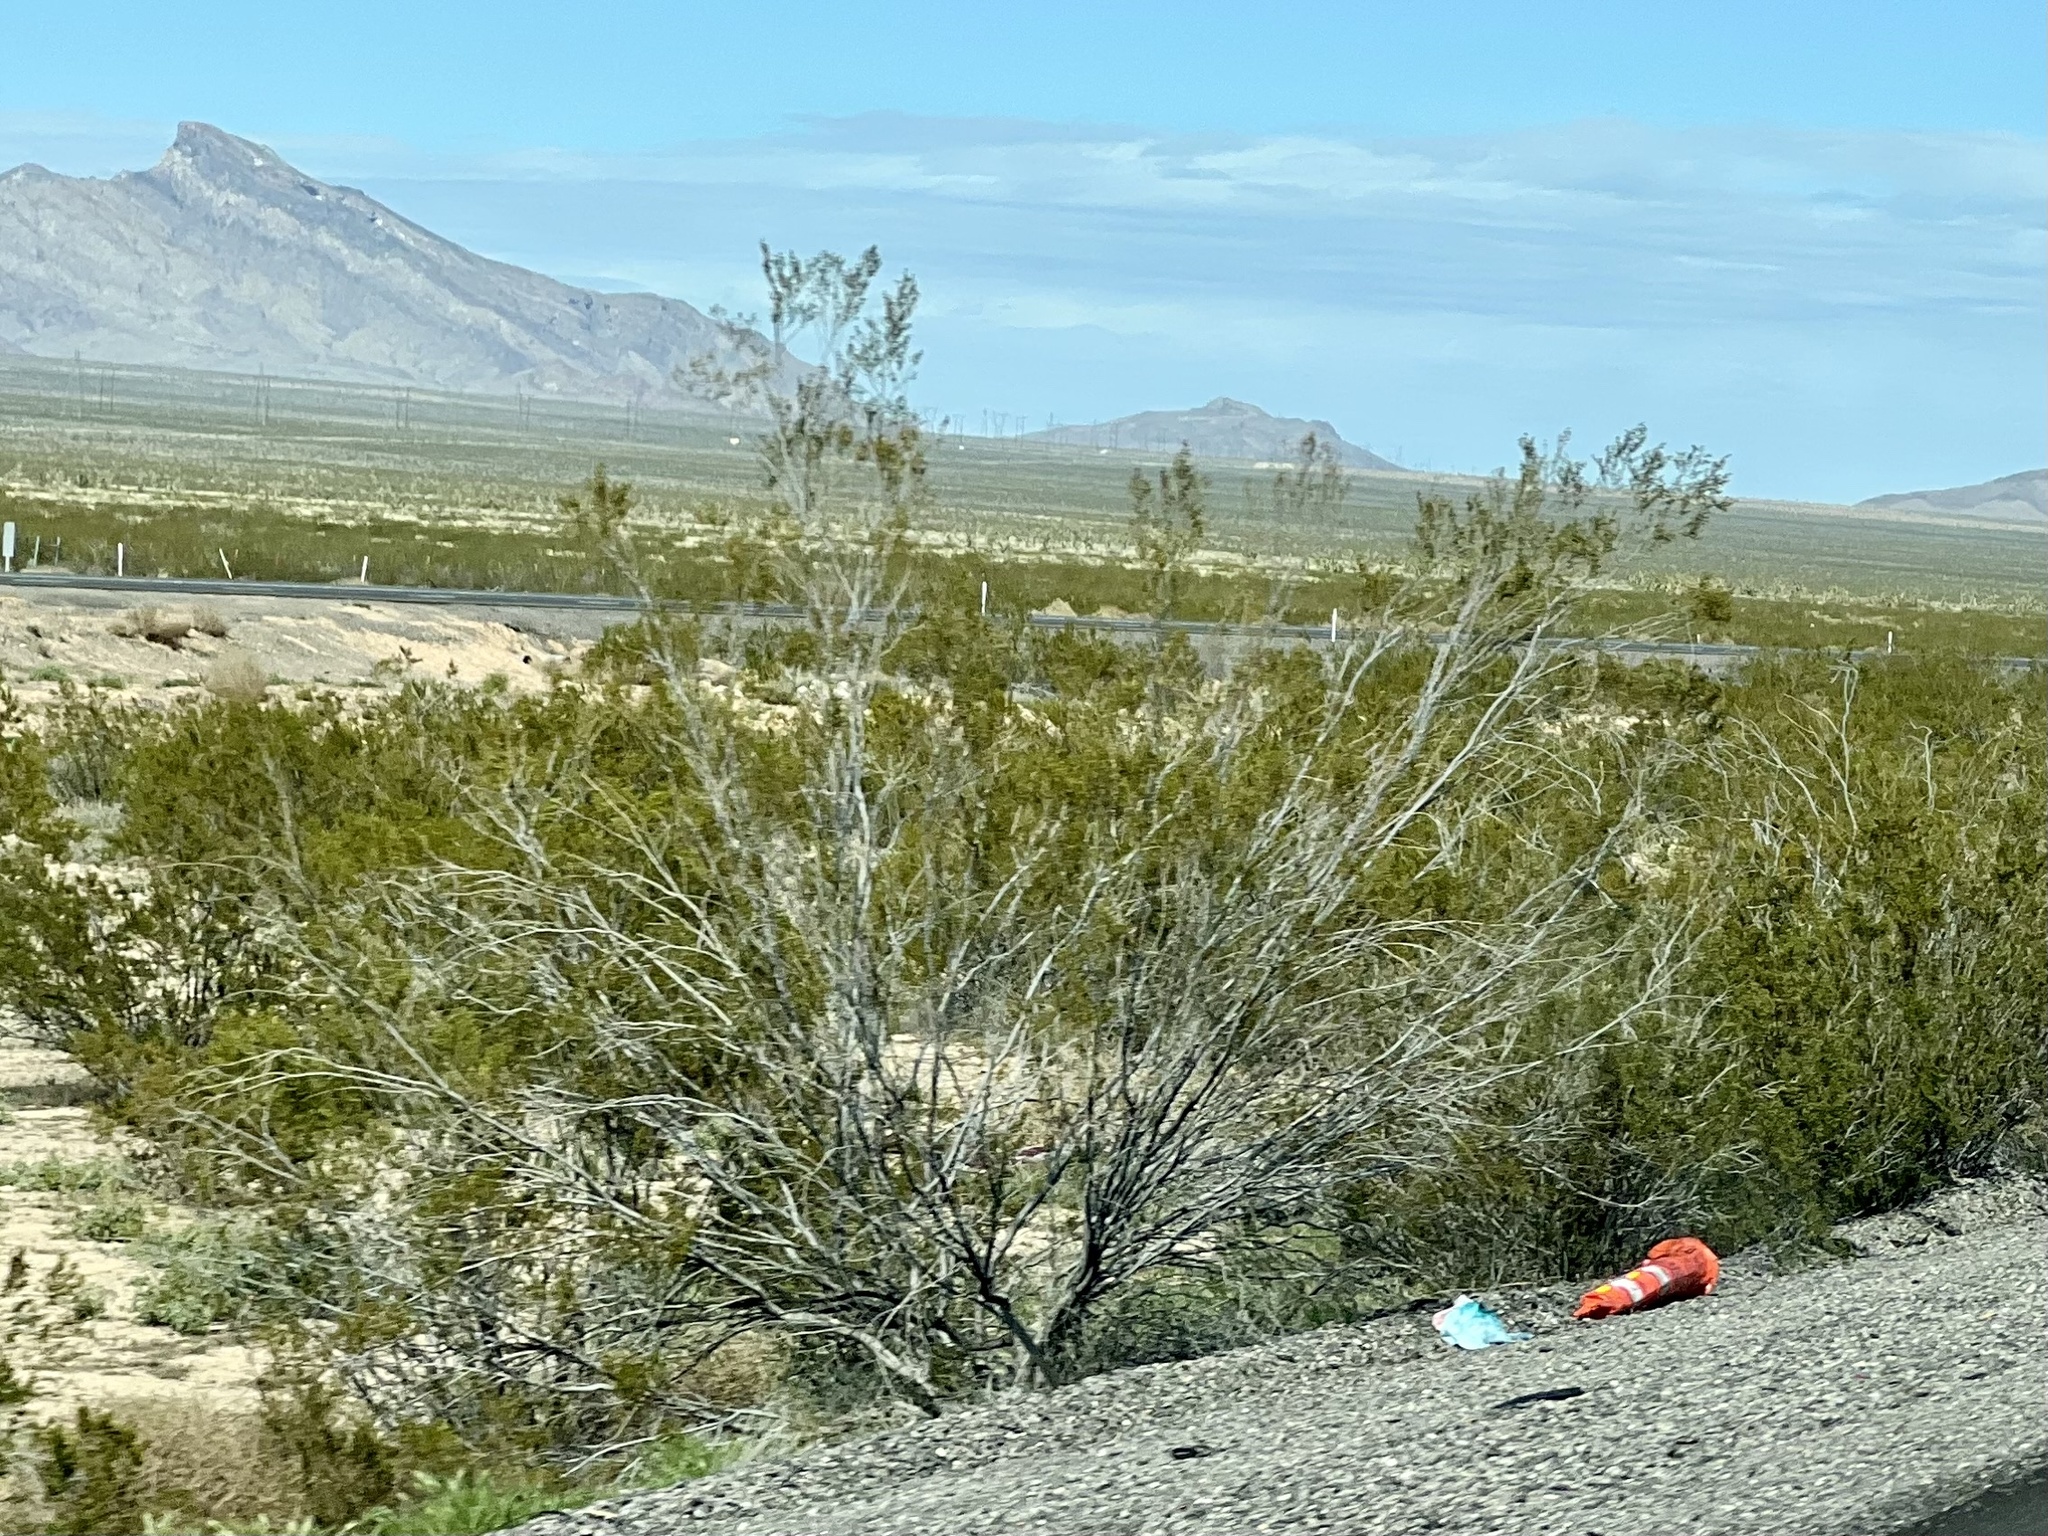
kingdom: Plantae
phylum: Tracheophyta
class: Magnoliopsida
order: Zygophyllales
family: Zygophyllaceae
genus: Larrea
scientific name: Larrea tridentata
